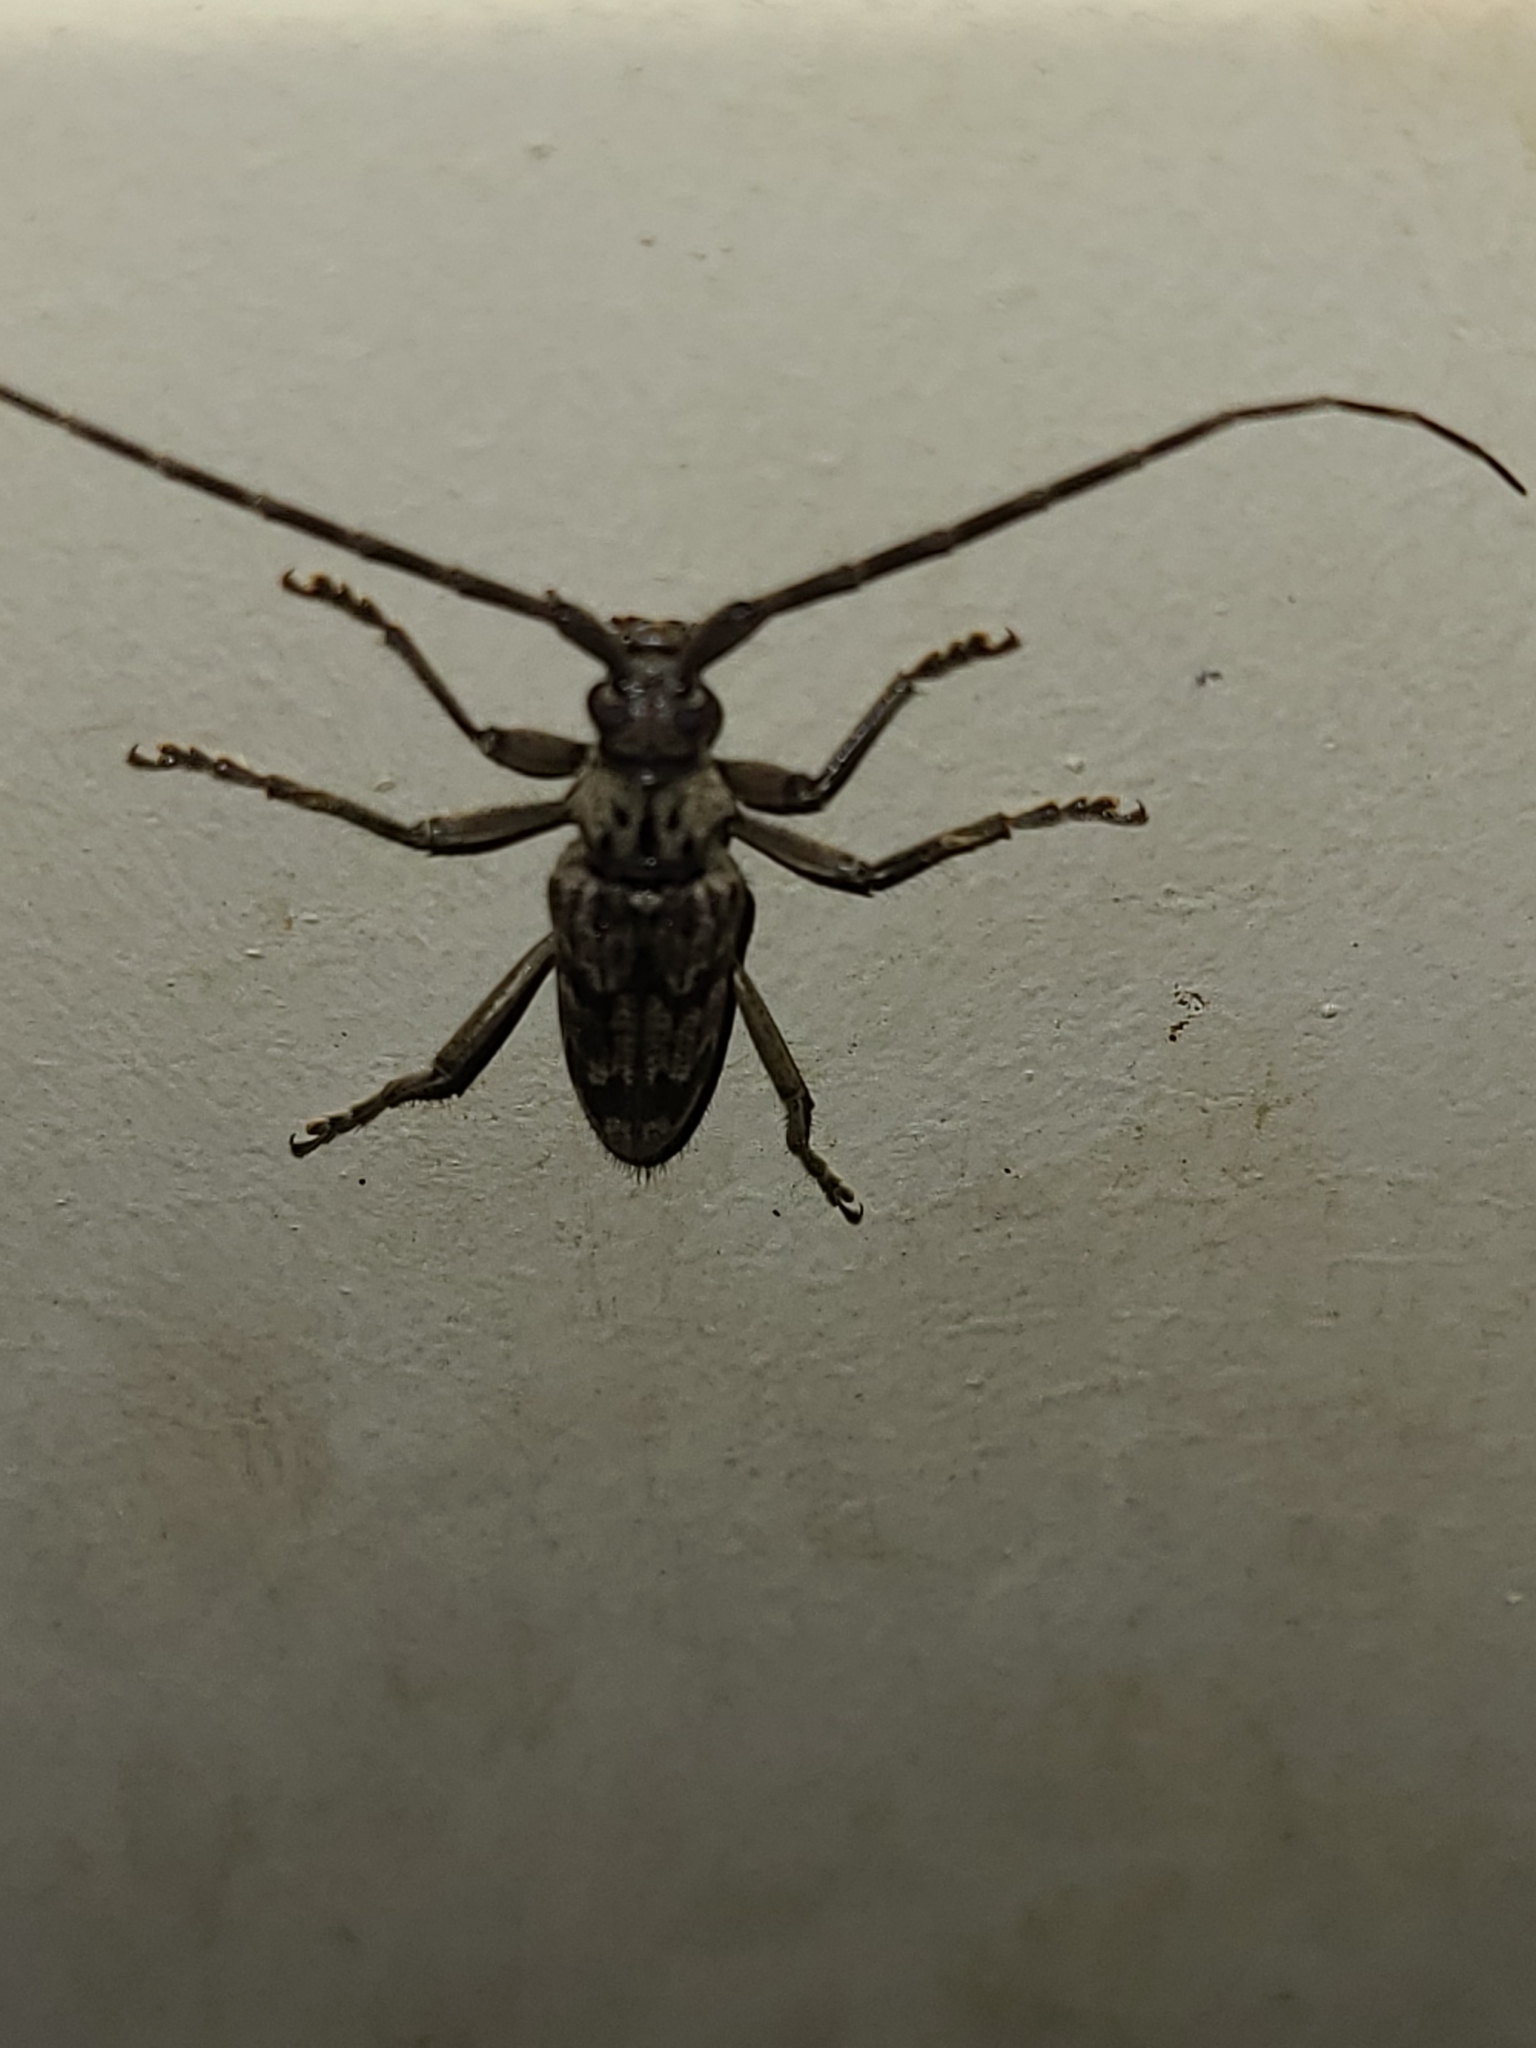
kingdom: Animalia
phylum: Arthropoda
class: Insecta
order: Coleoptera
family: Cerambycidae
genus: Elytrimitatrix
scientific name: Elytrimitatrix undata
